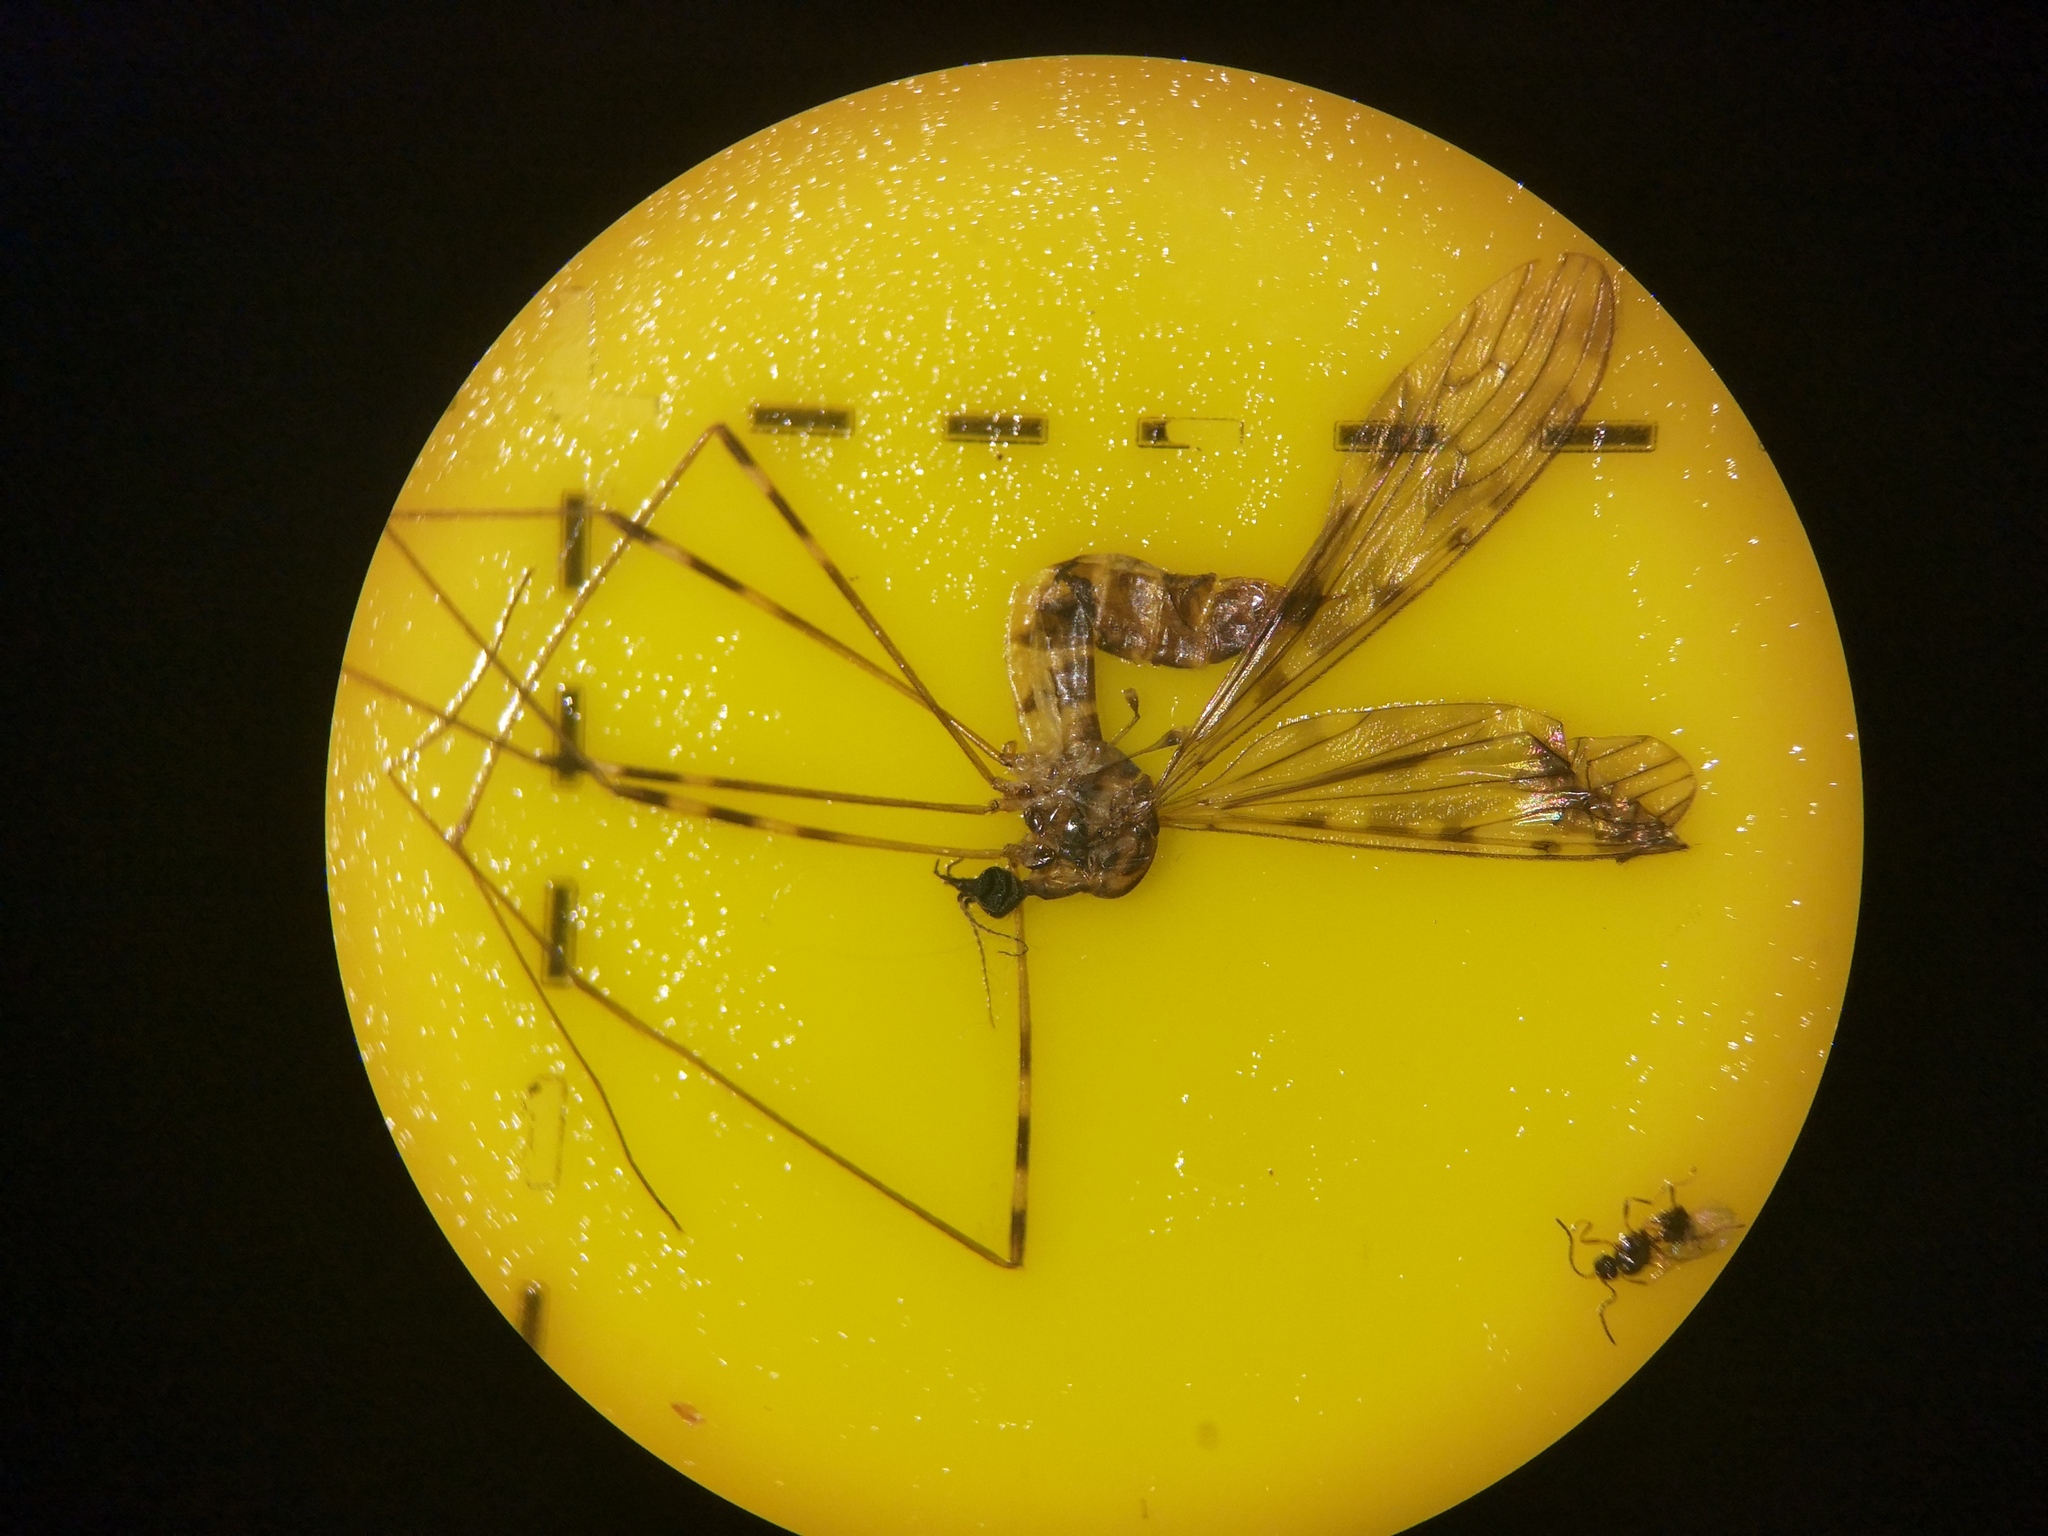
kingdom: Animalia
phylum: Arthropoda
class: Insecta
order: Diptera
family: Limoniidae
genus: Limonia
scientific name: Limonia nubeculosa
